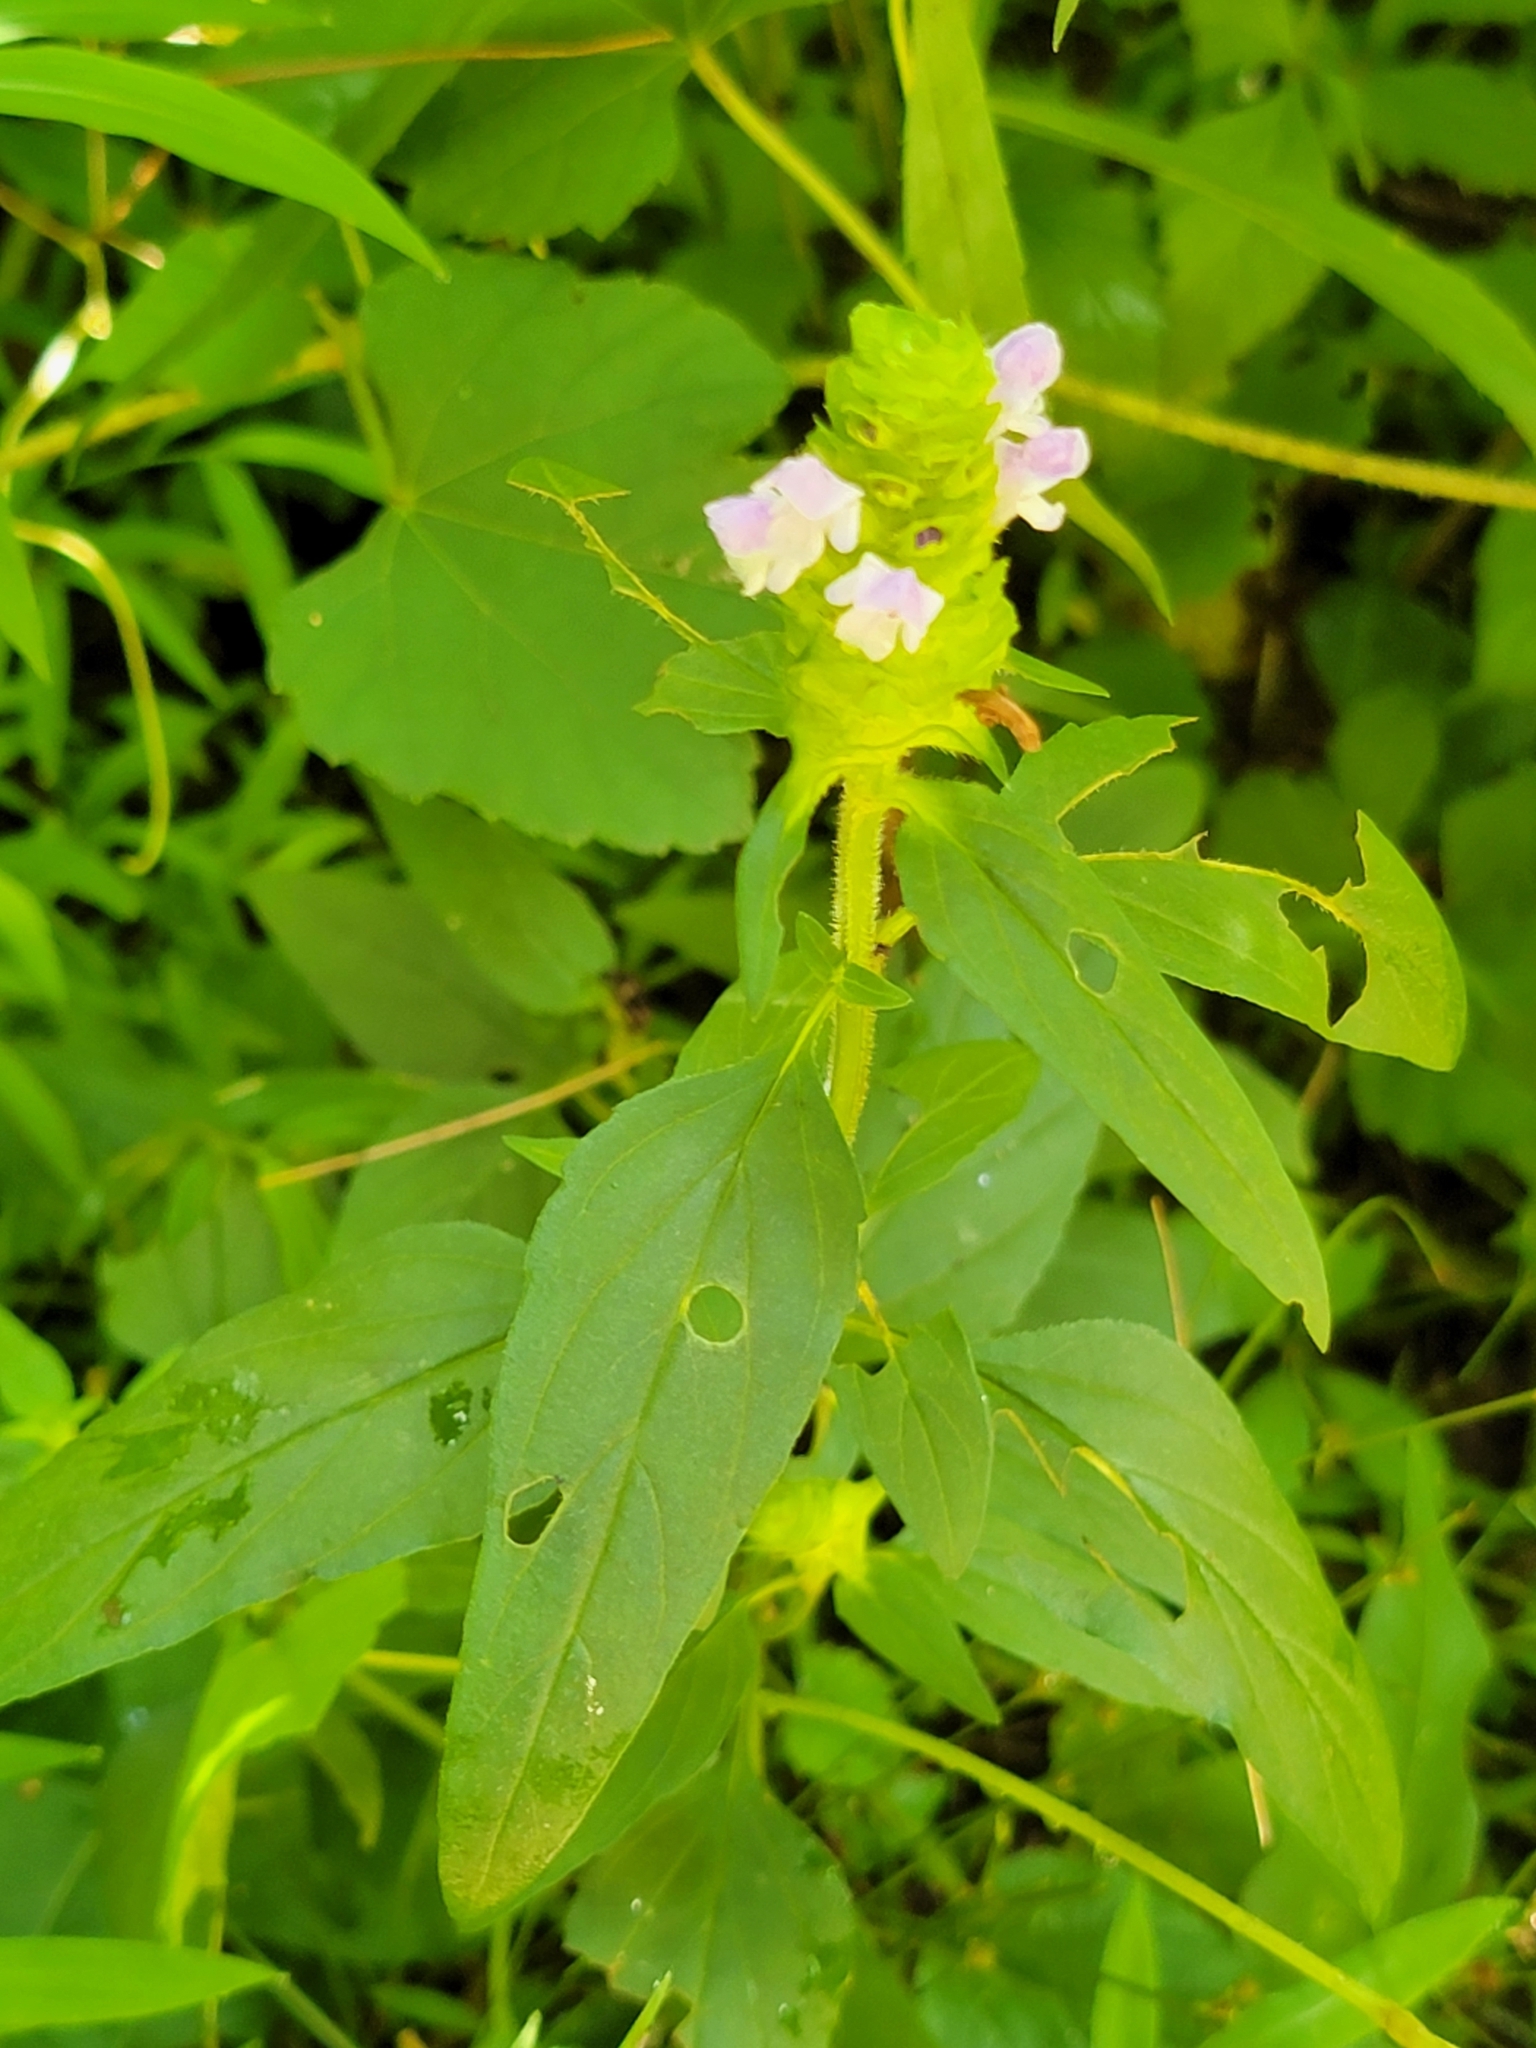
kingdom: Plantae
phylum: Tracheophyta
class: Magnoliopsida
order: Lamiales
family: Lamiaceae
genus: Prunella
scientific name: Prunella vulgaris
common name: Heal-all
